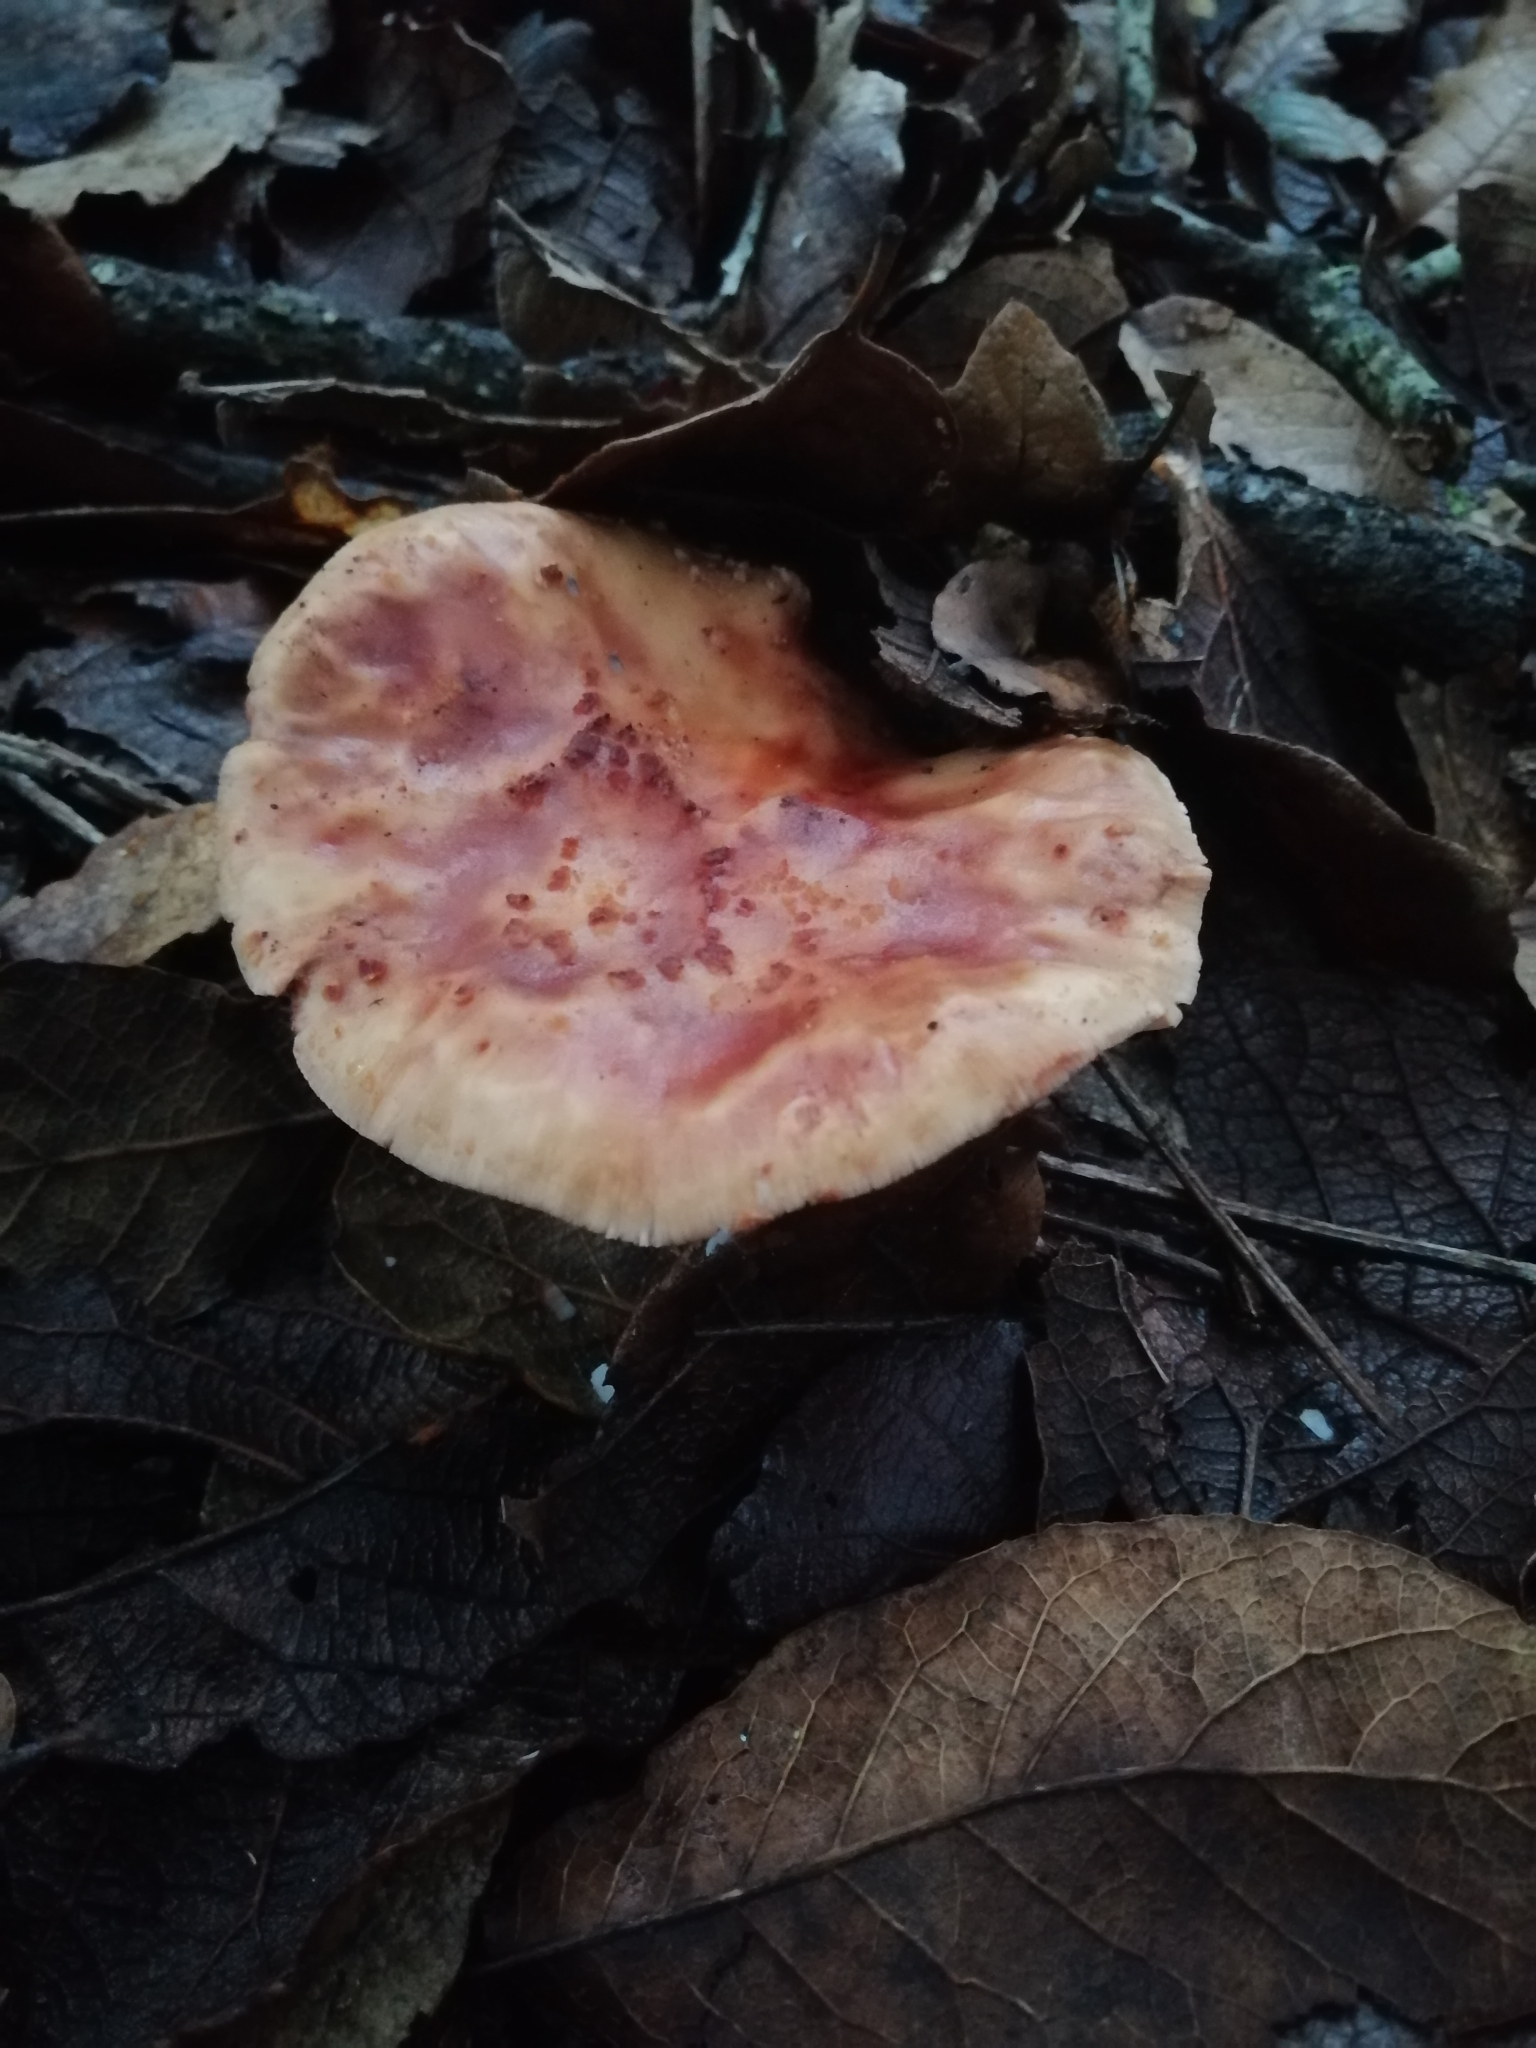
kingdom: Fungi
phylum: Basidiomycota
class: Agaricomycetes
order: Agaricales
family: Amanitaceae
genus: Amanita
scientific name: Amanita brunneolocularis
